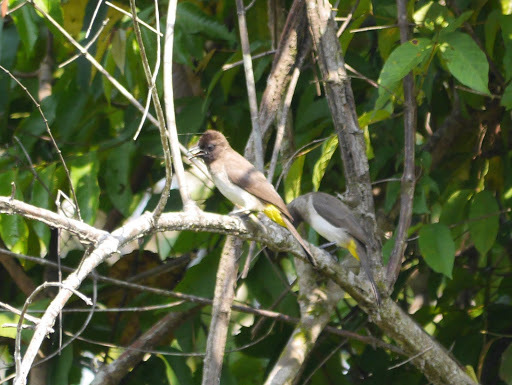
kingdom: Animalia
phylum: Chordata
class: Aves
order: Passeriformes
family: Pycnonotidae
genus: Pycnonotus
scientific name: Pycnonotus barbatus
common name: Common bulbul
